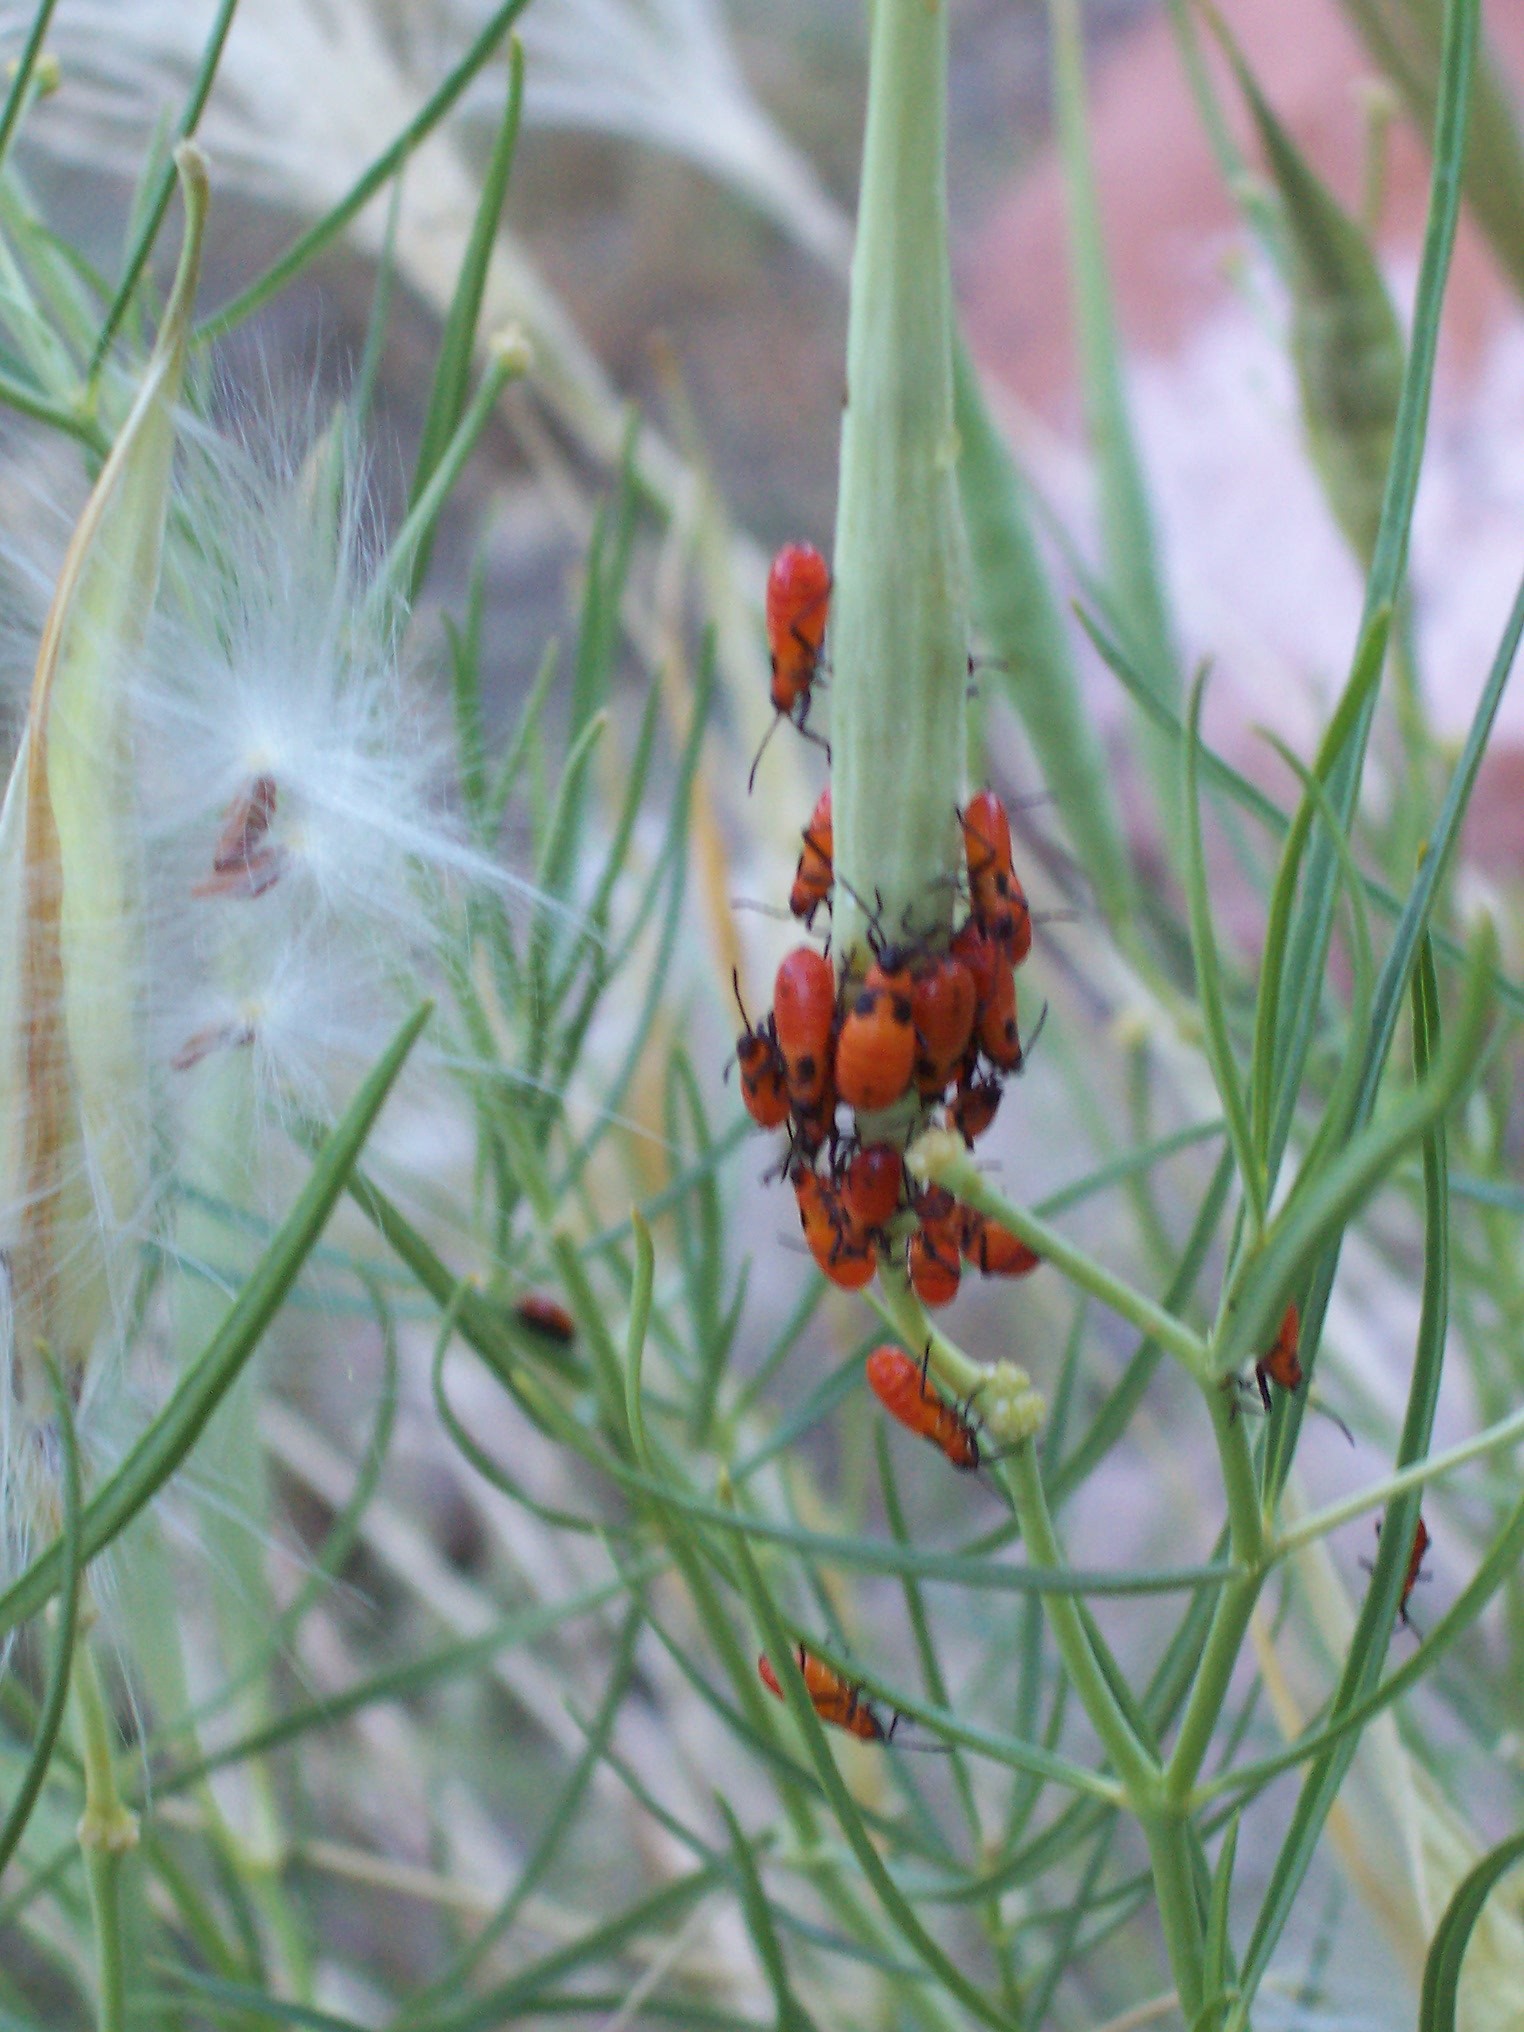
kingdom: Plantae
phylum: Tracheophyta
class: Magnoliopsida
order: Gentianales
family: Apocynaceae
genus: Asclepias
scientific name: Asclepias subverticillata
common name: Horsetail milkweed
